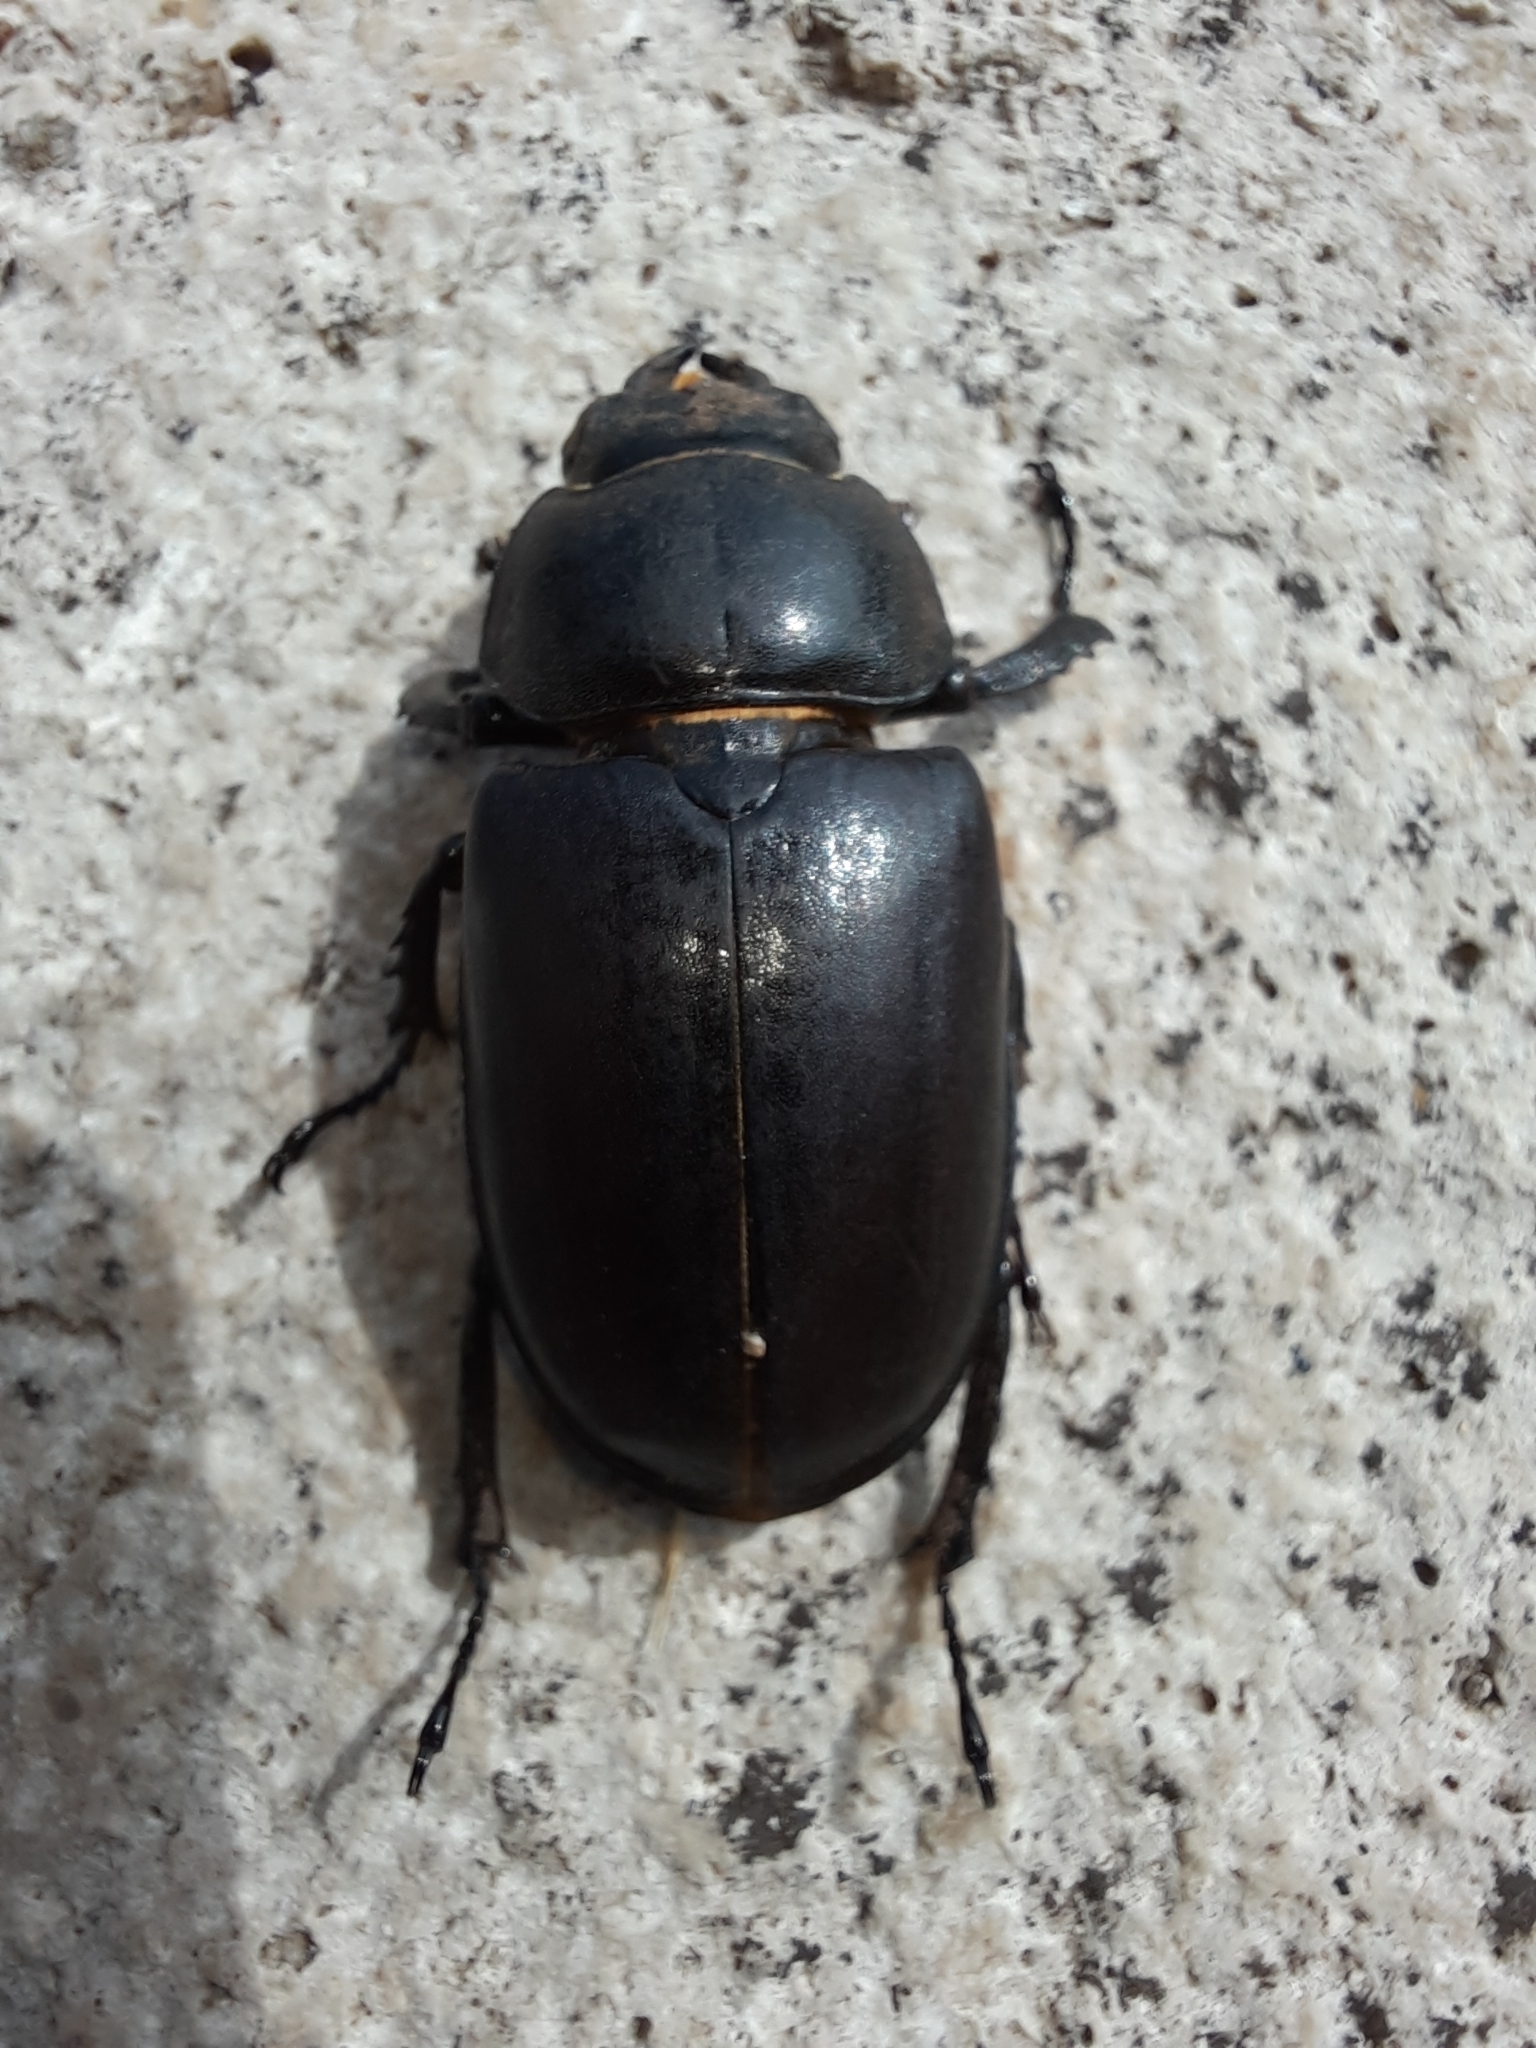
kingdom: Animalia
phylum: Arthropoda
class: Insecta
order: Coleoptera
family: Lucanidae
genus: Lucanus
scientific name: Lucanus cervus
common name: Stag beetle
